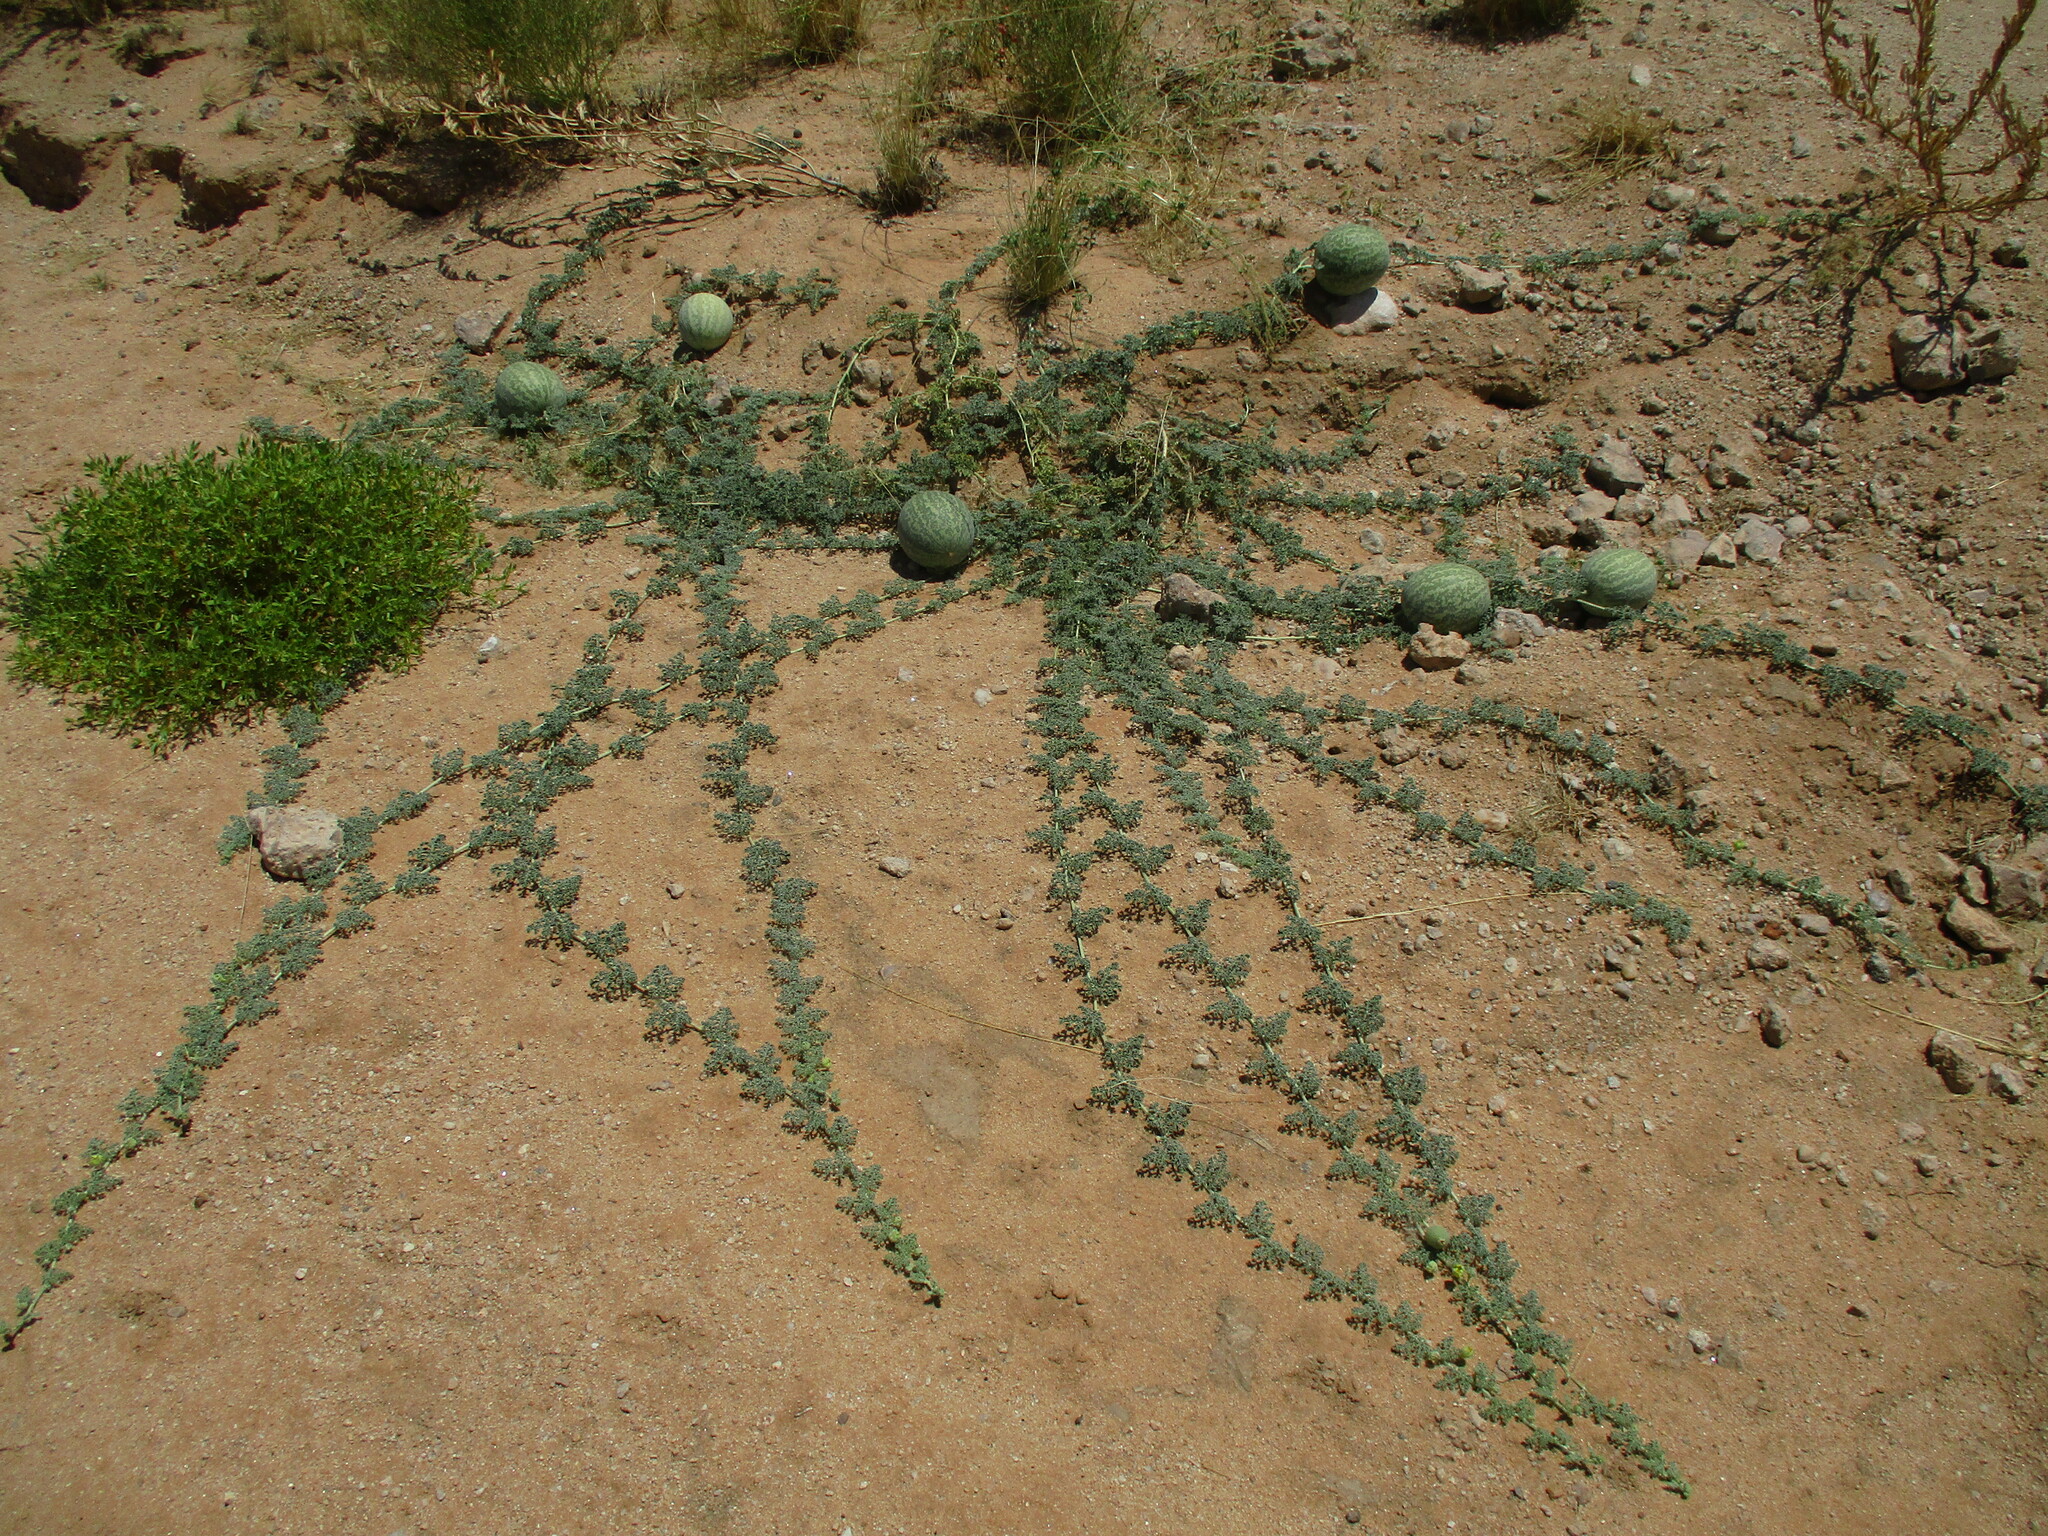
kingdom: Plantae
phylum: Tracheophyta
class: Magnoliopsida
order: Cucurbitales
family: Cucurbitaceae
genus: Citrullus
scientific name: Citrullus ecirrhosus
